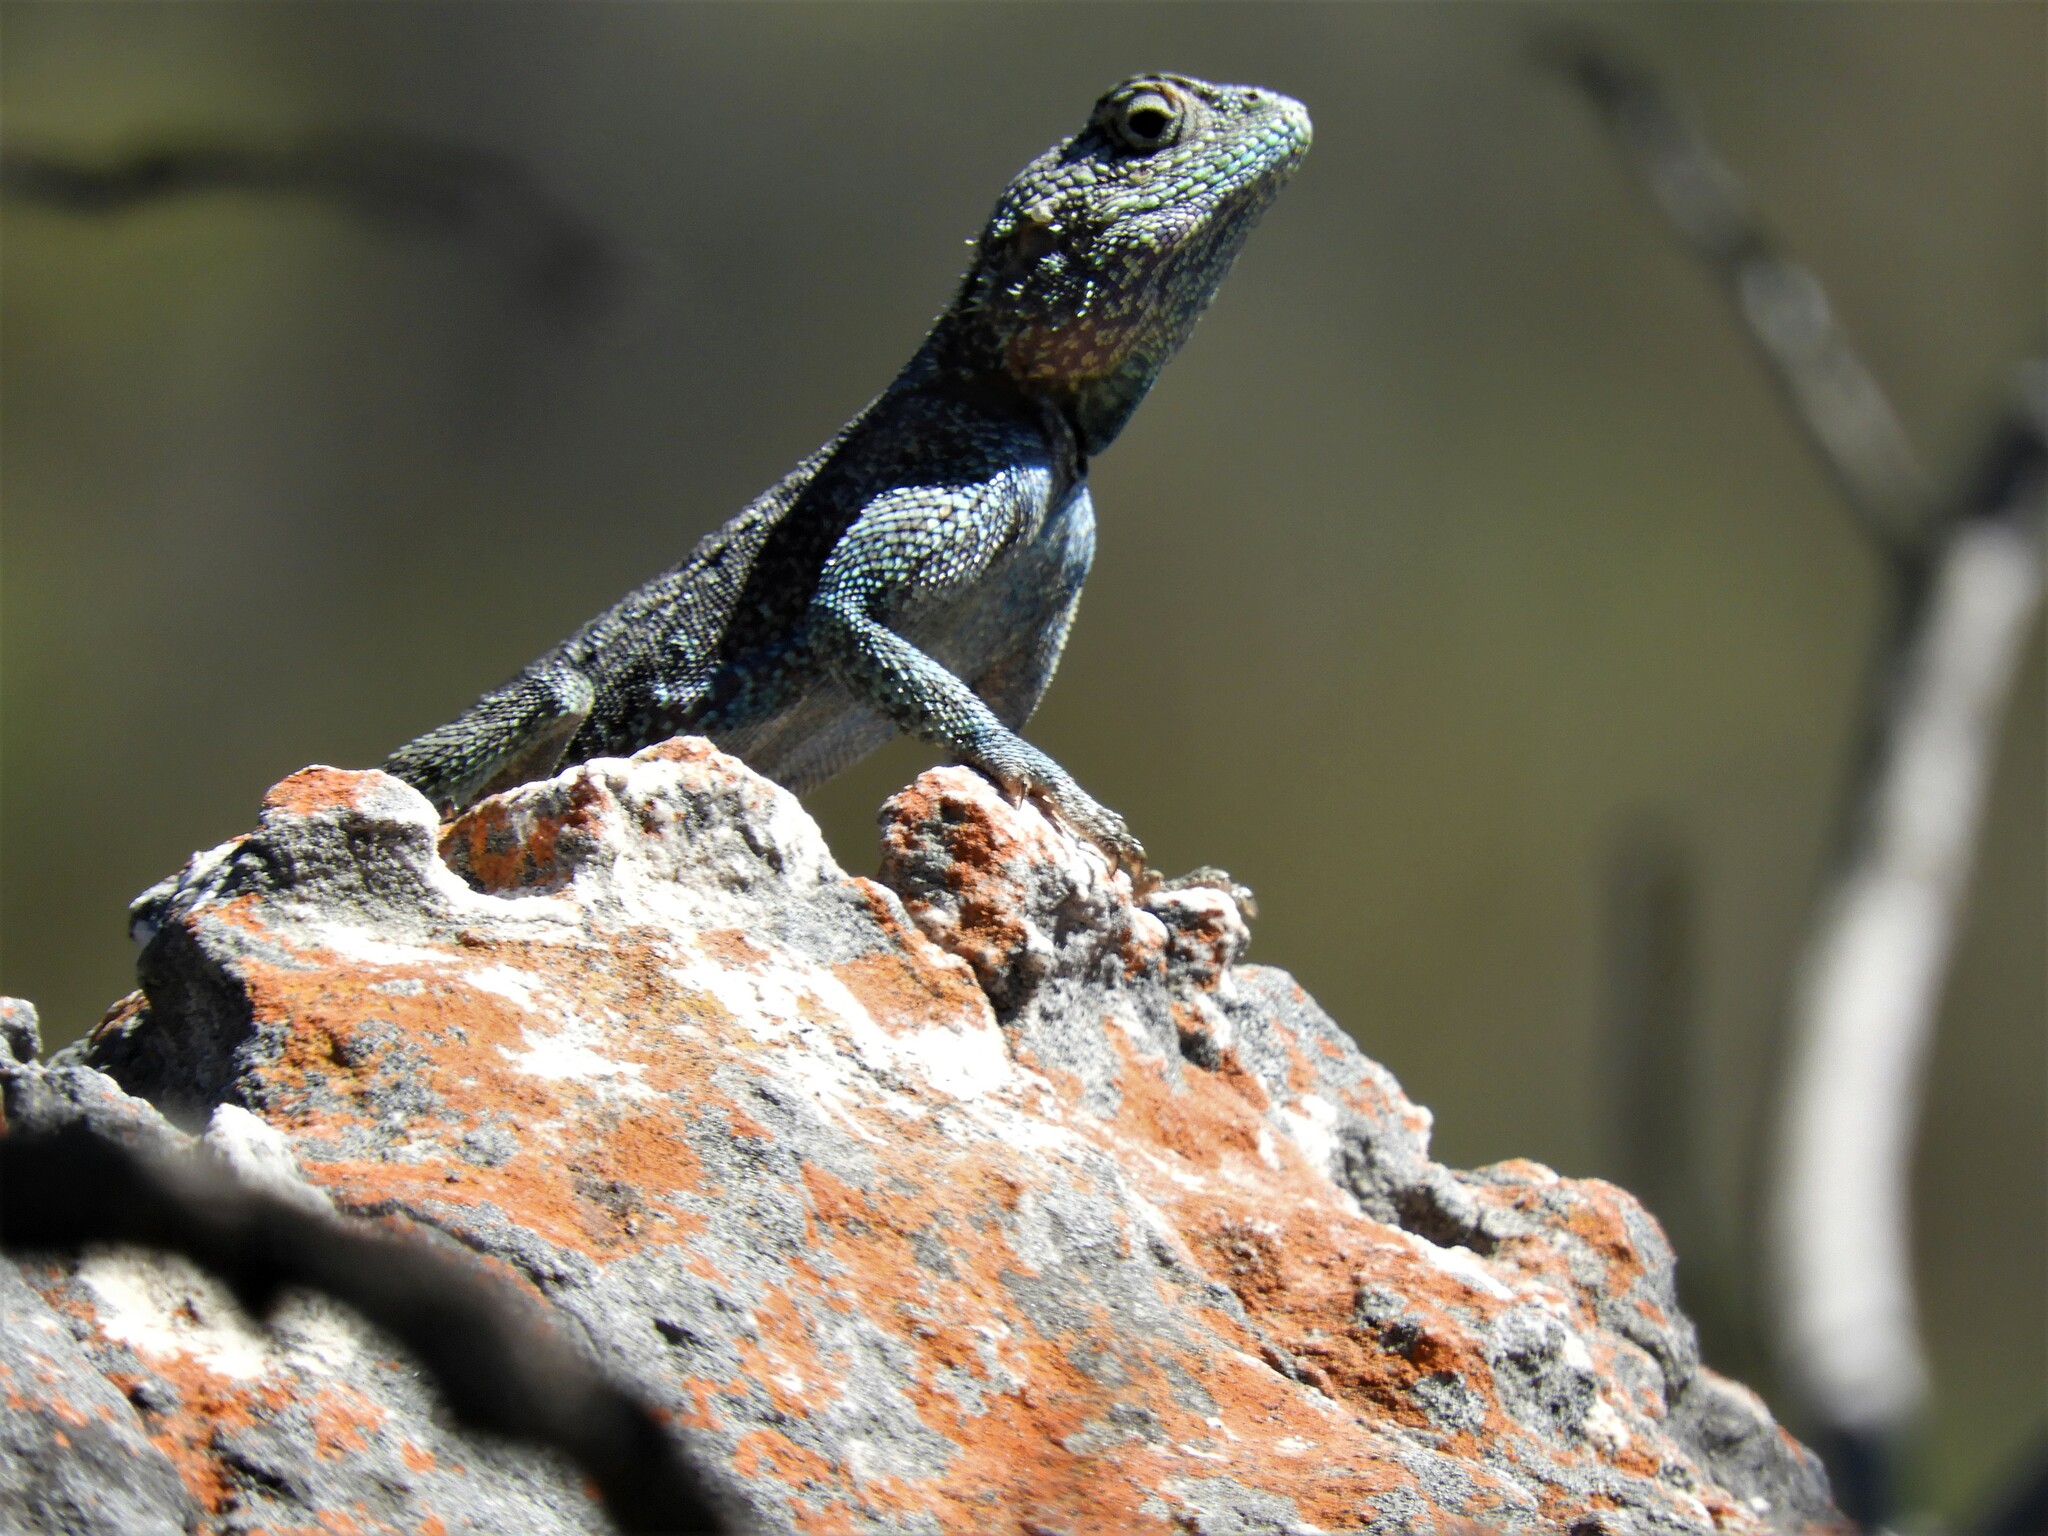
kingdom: Animalia
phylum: Chordata
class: Squamata
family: Agamidae
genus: Agama
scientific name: Agama atra
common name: Southern african rock agama
